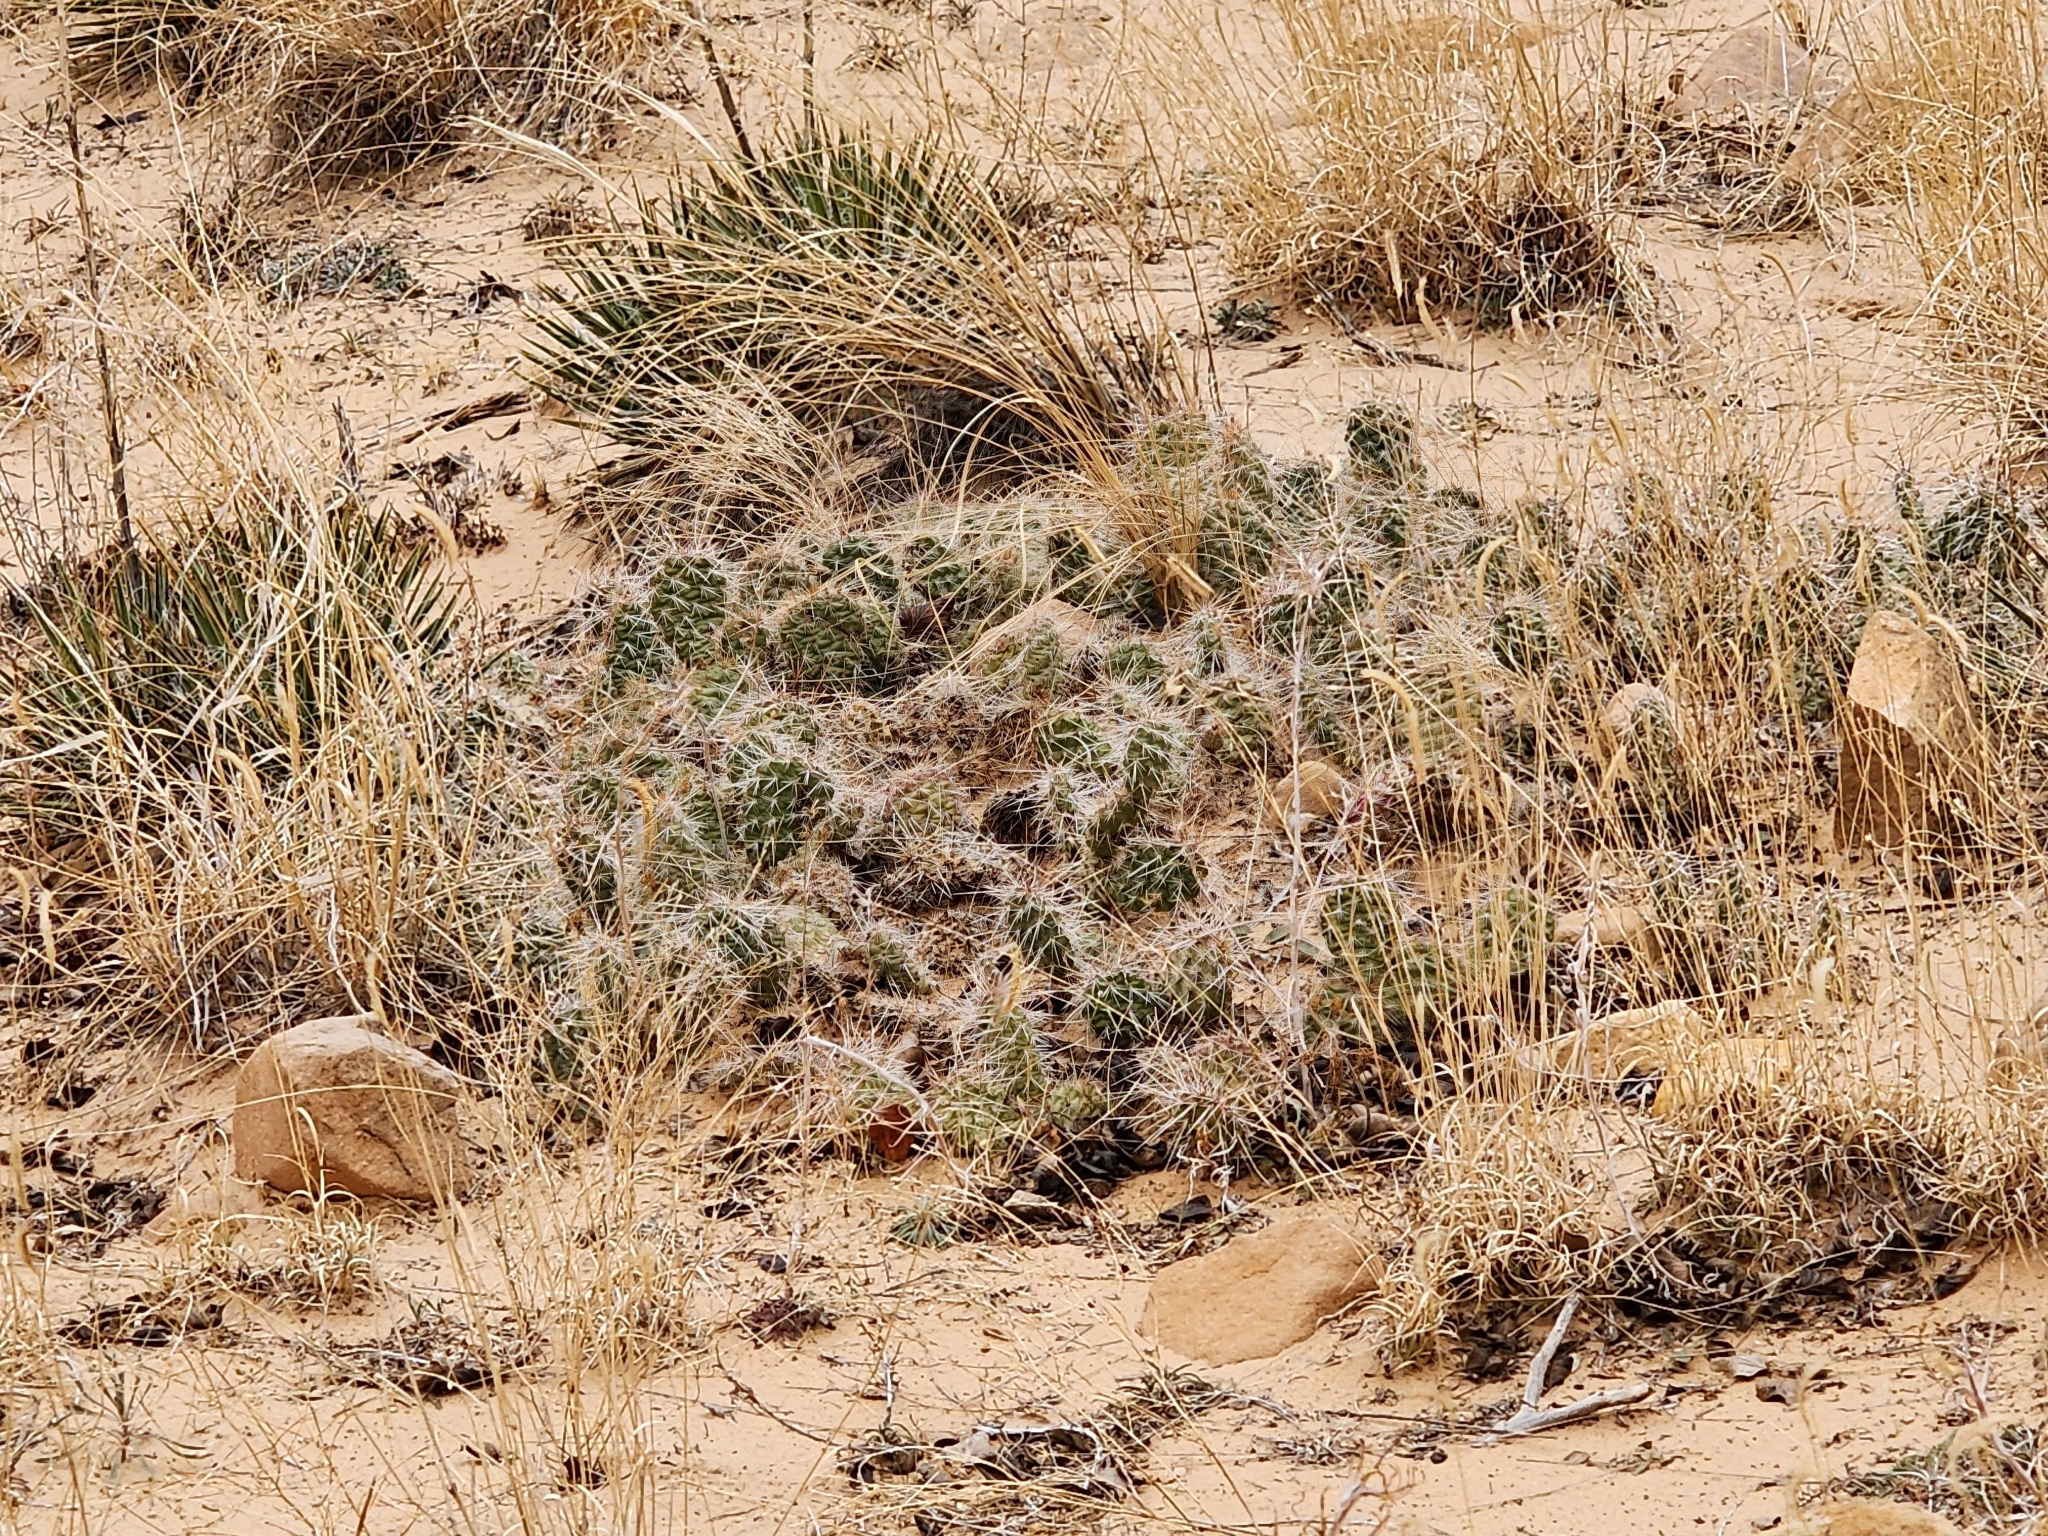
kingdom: Plantae
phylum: Tracheophyta
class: Magnoliopsida
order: Caryophyllales
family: Cactaceae
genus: Opuntia
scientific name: Opuntia polyacantha
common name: Plains prickly-pear
